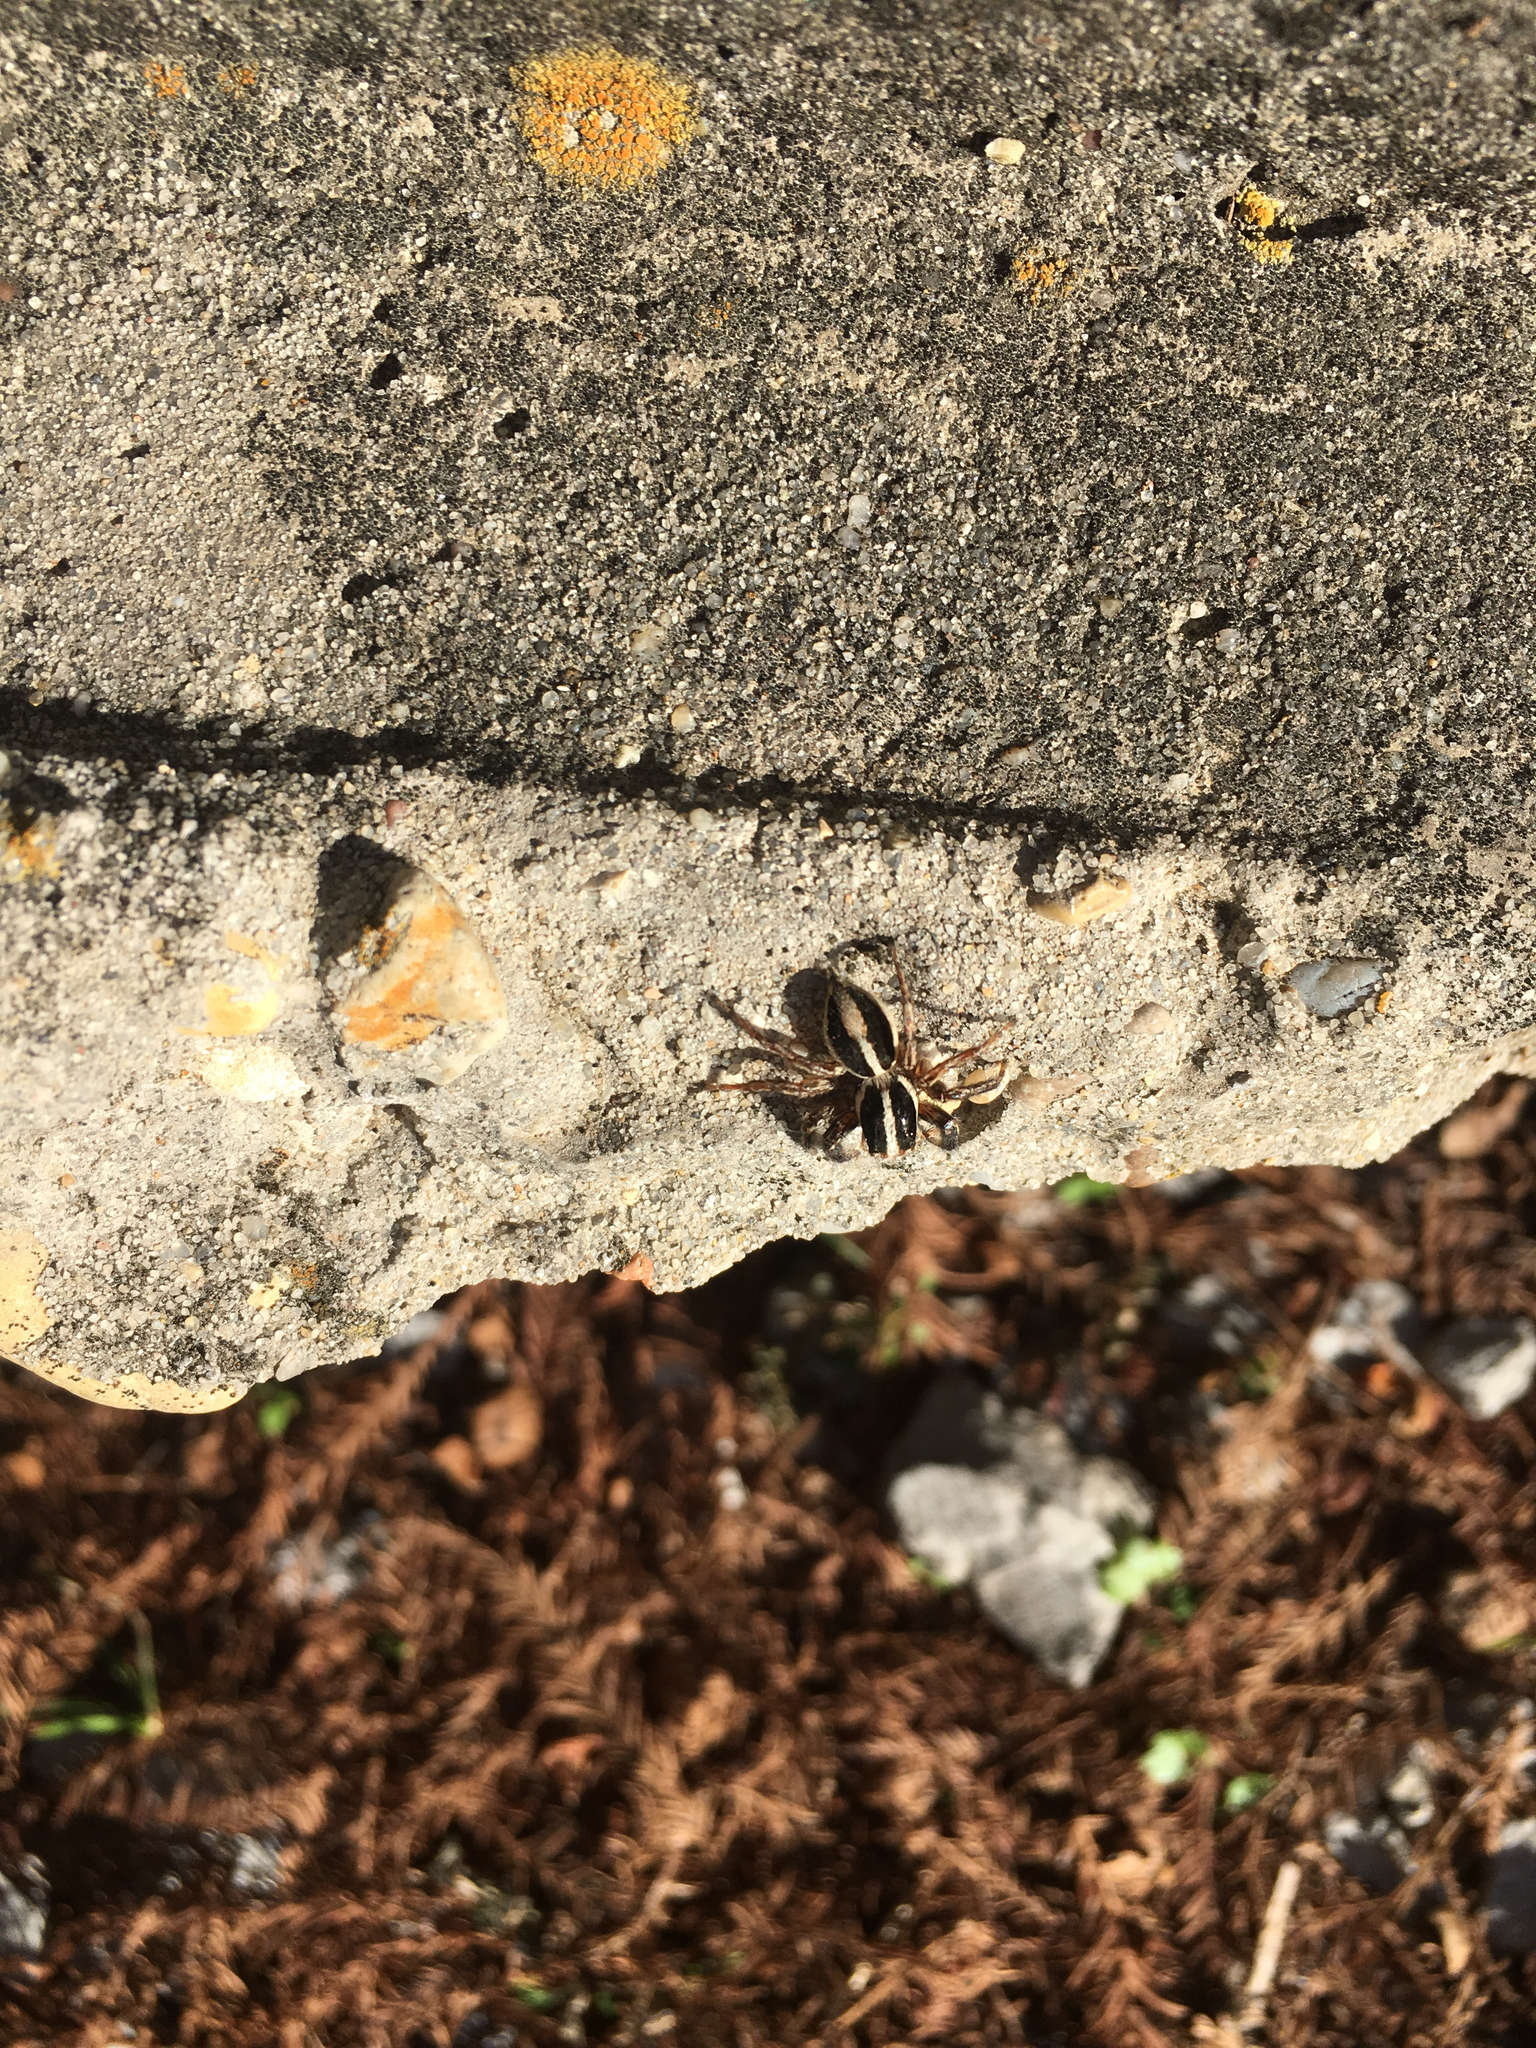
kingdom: Animalia
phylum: Arthropoda
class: Arachnida
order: Araneae
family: Salticidae
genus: Plexippus
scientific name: Plexippus paykulli
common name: Pantropical jumper
